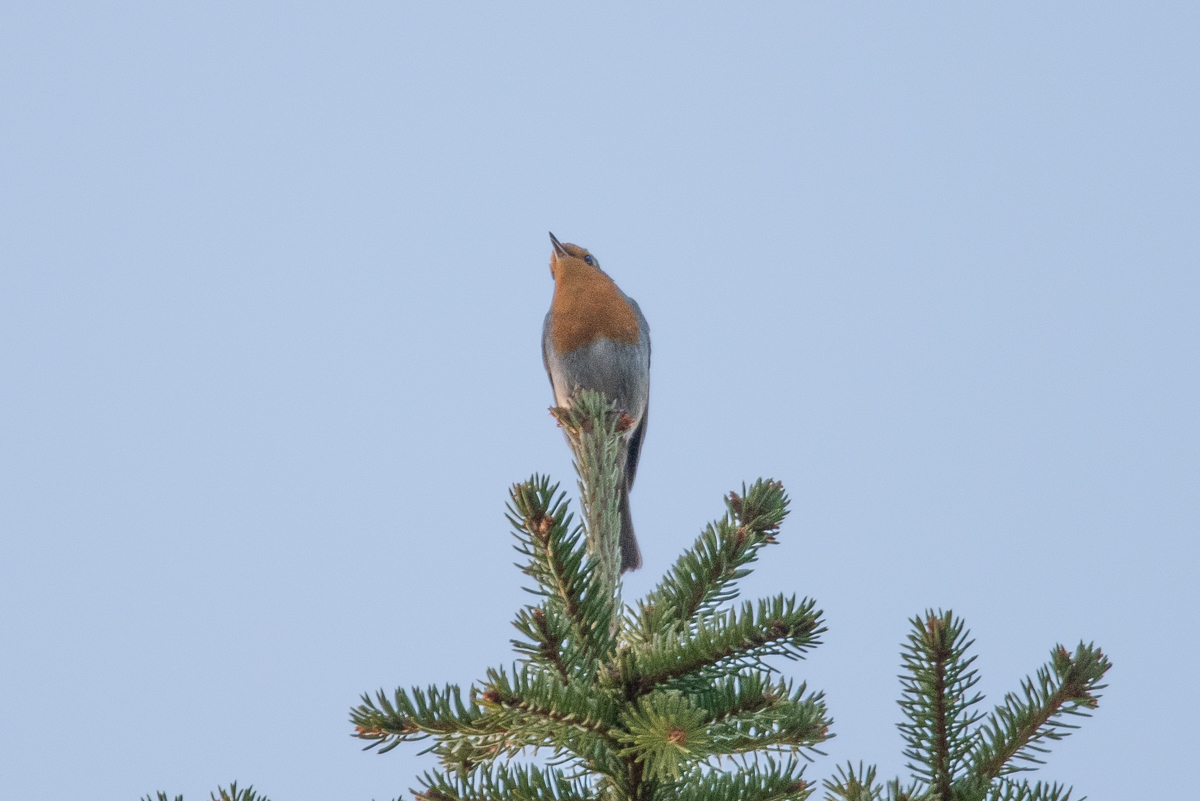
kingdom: Animalia
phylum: Chordata
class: Aves
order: Passeriformes
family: Muscicapidae
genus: Erithacus
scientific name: Erithacus rubecula
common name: European robin
